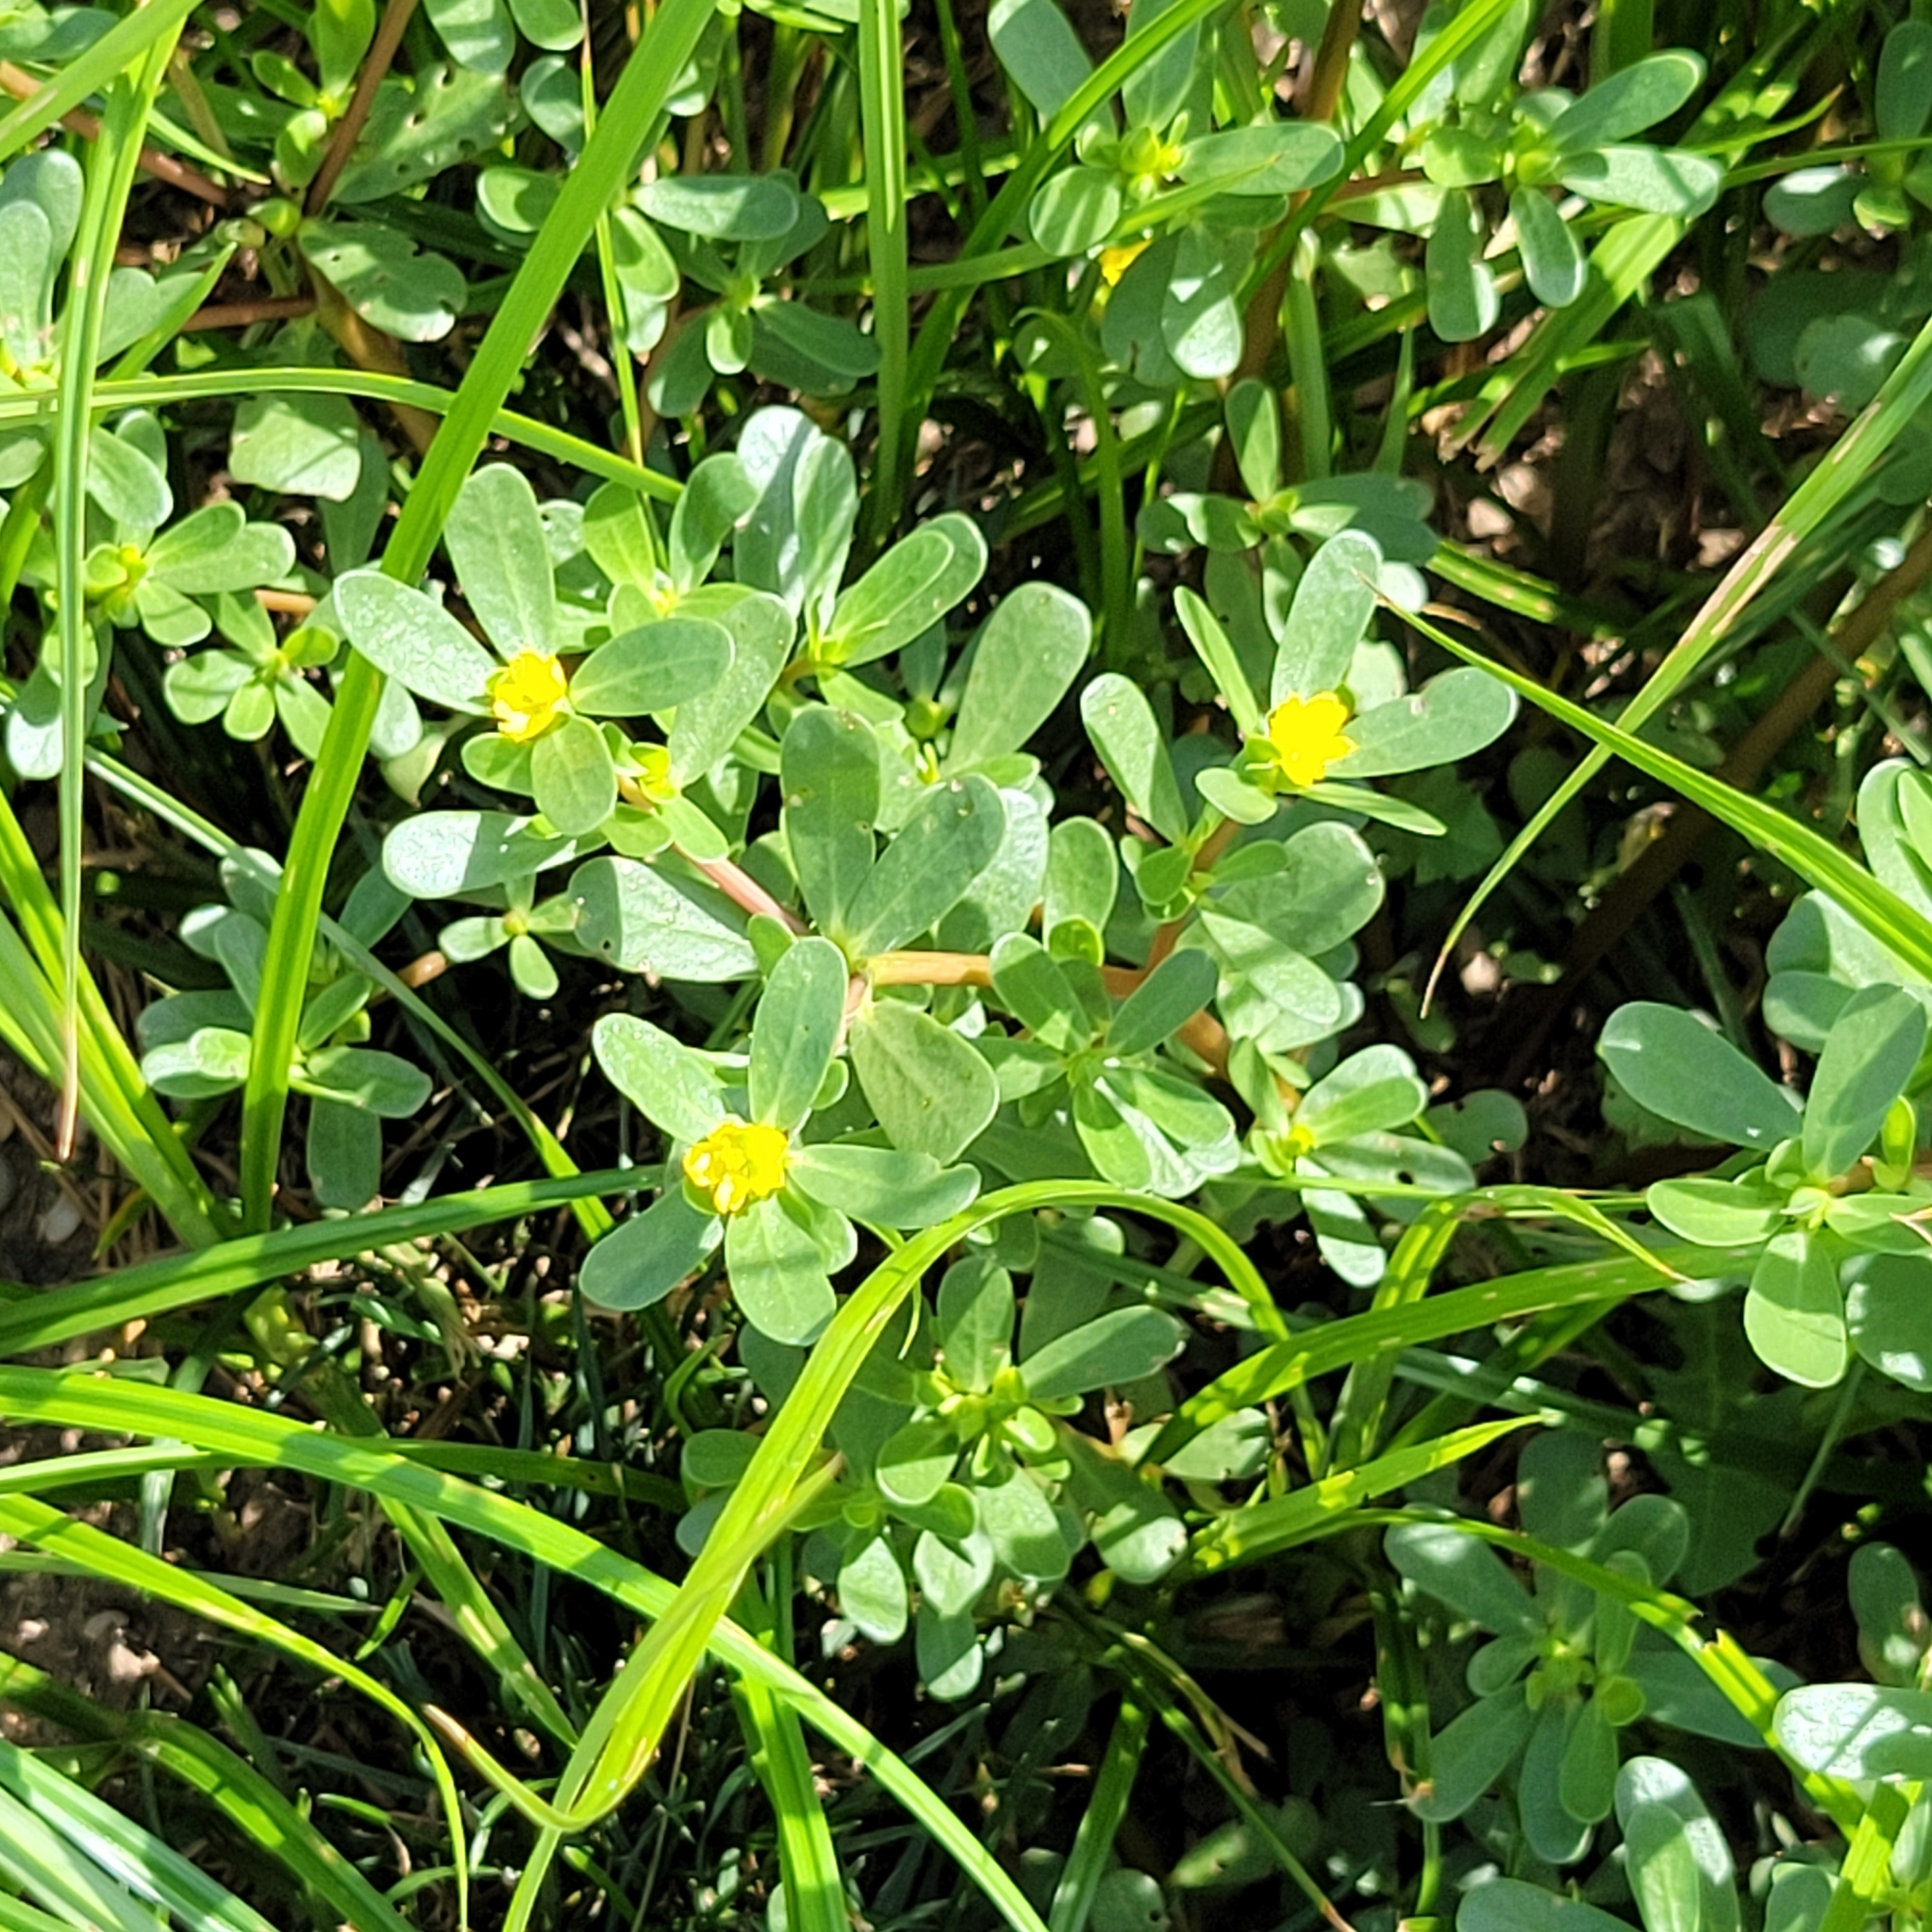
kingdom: Plantae
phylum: Tracheophyta
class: Magnoliopsida
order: Caryophyllales
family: Portulacaceae
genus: Portulaca
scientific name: Portulaca oleracea
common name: Common purslane
